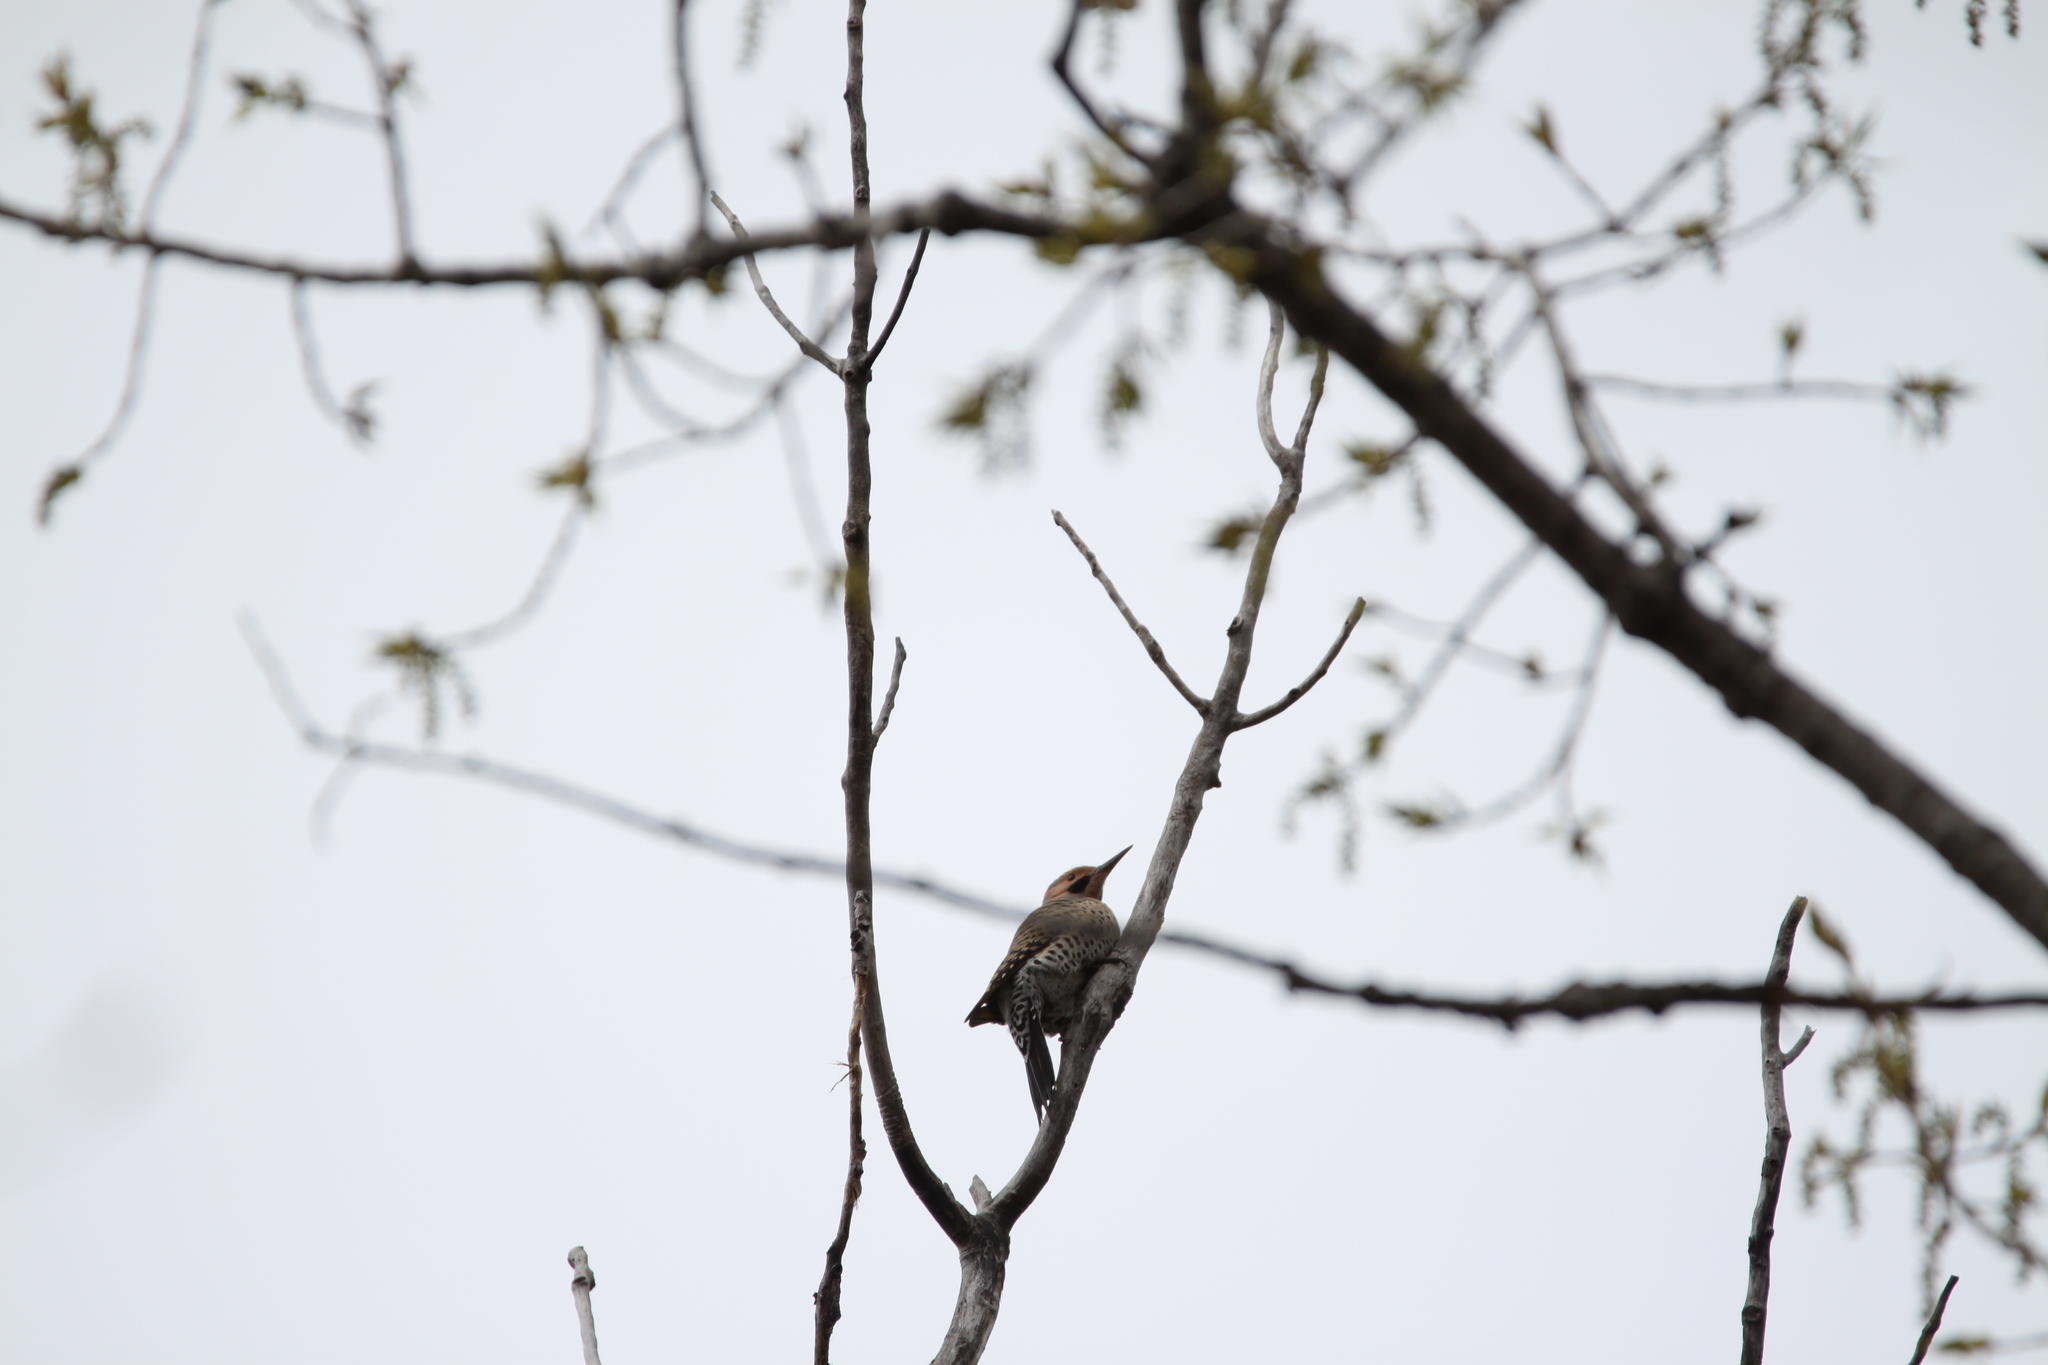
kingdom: Animalia
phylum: Chordata
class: Aves
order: Piciformes
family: Picidae
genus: Colaptes
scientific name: Colaptes auratus
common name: Northern flicker
